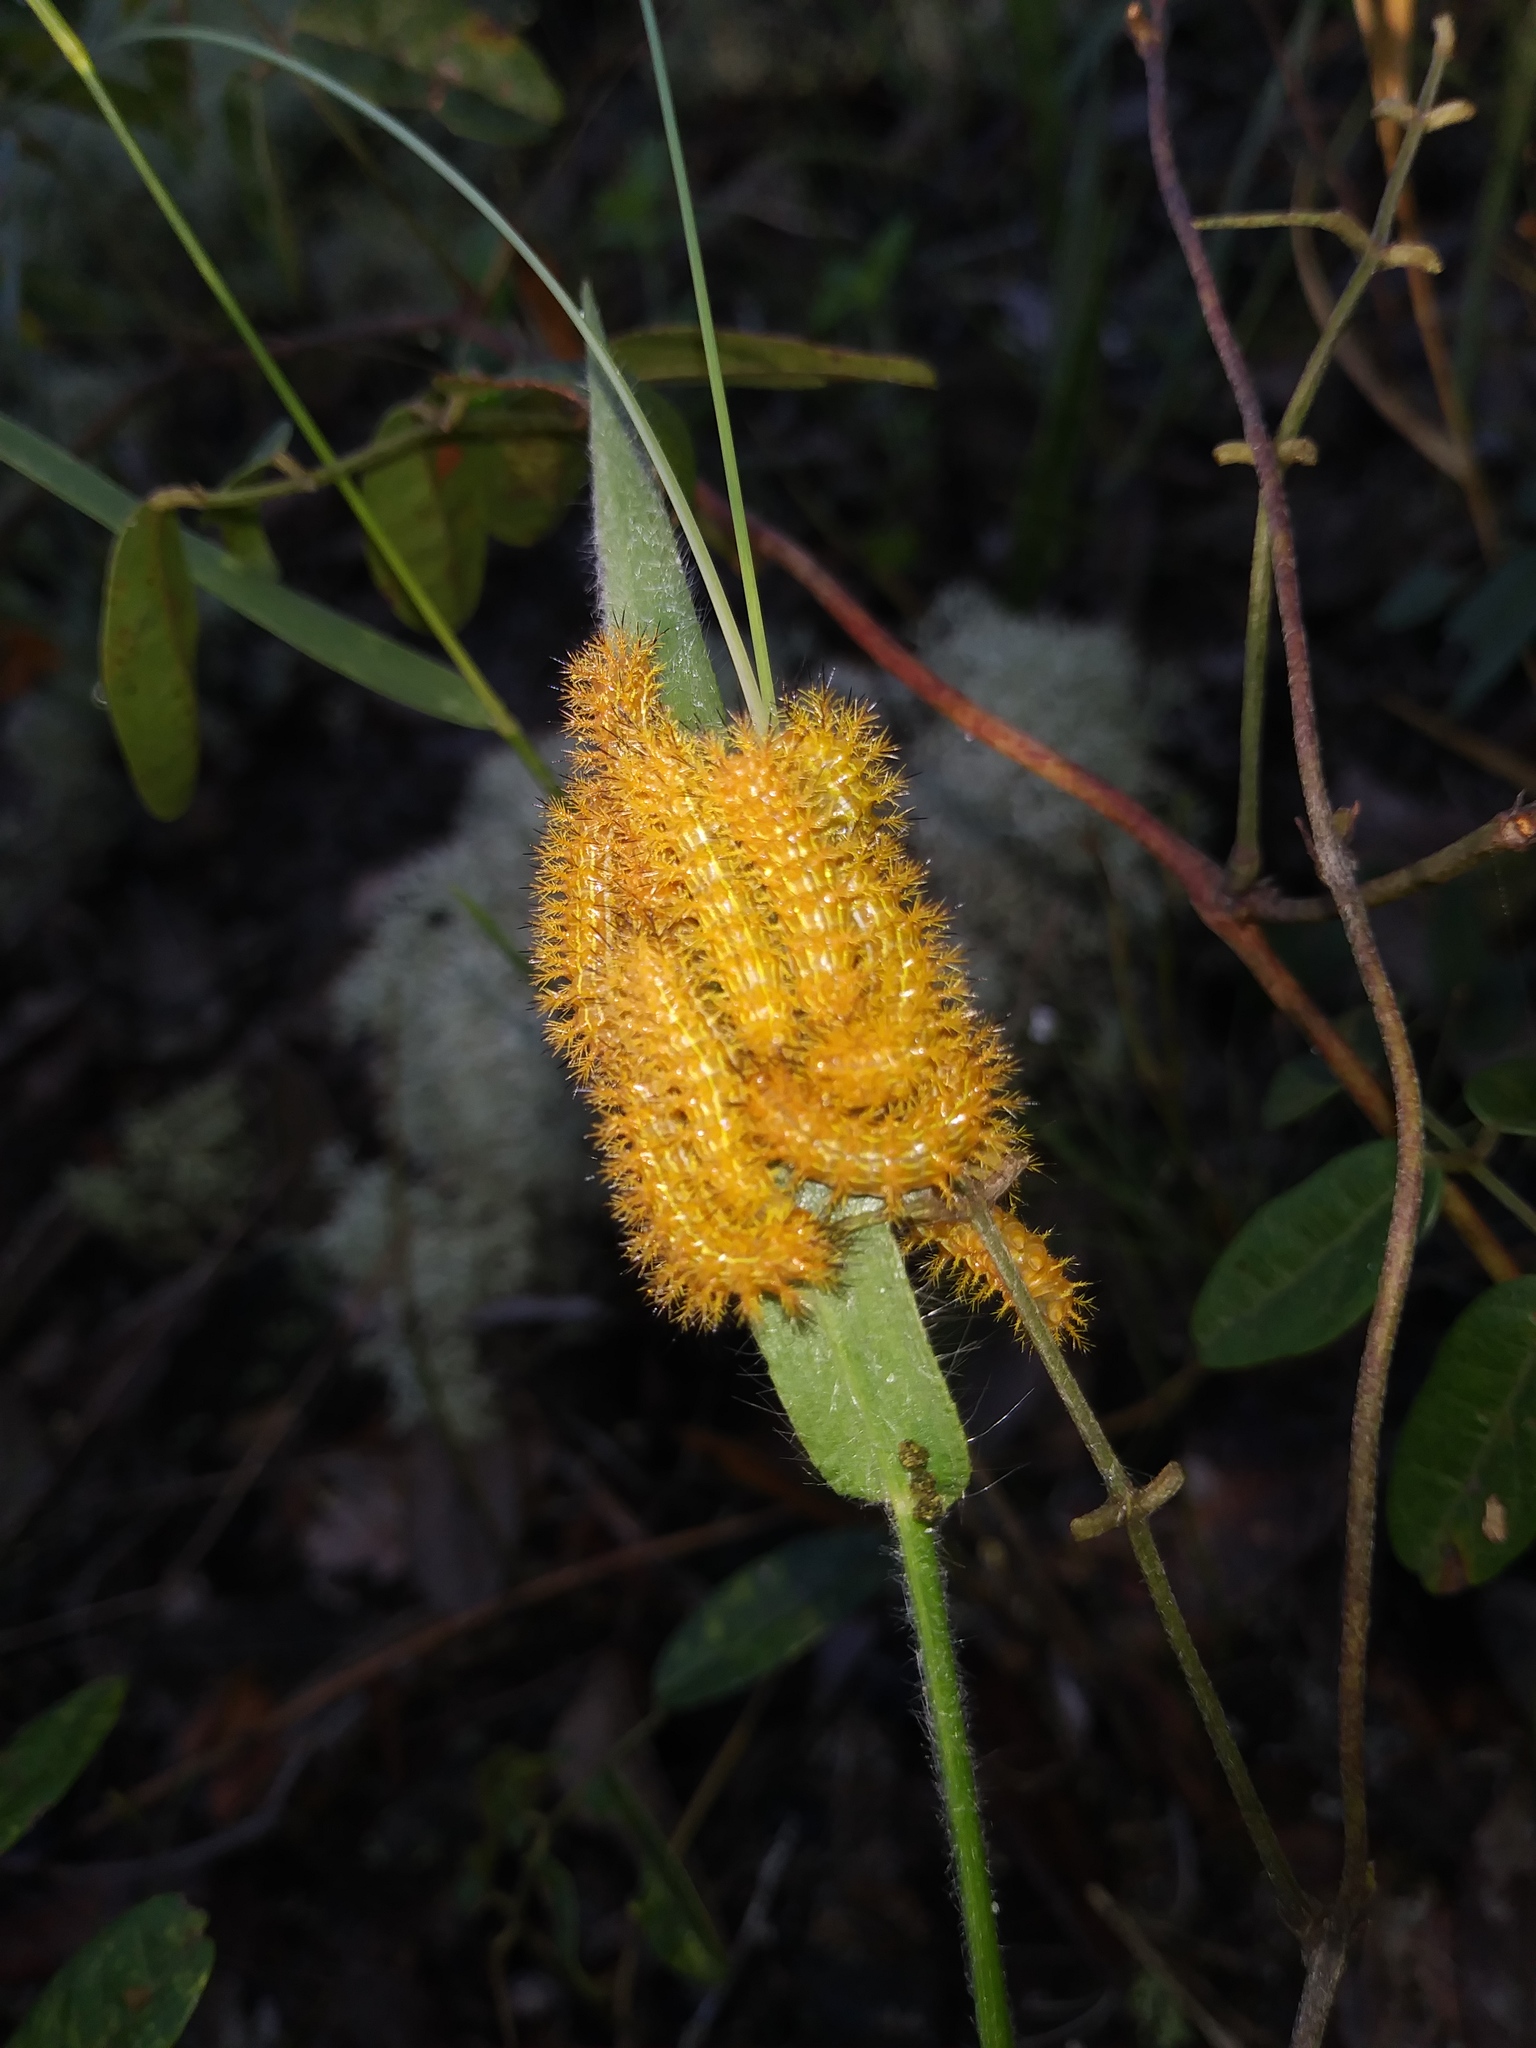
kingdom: Animalia
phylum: Arthropoda
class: Insecta
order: Lepidoptera
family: Saturniidae
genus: Automeris
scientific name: Automeris io
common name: Io moth
